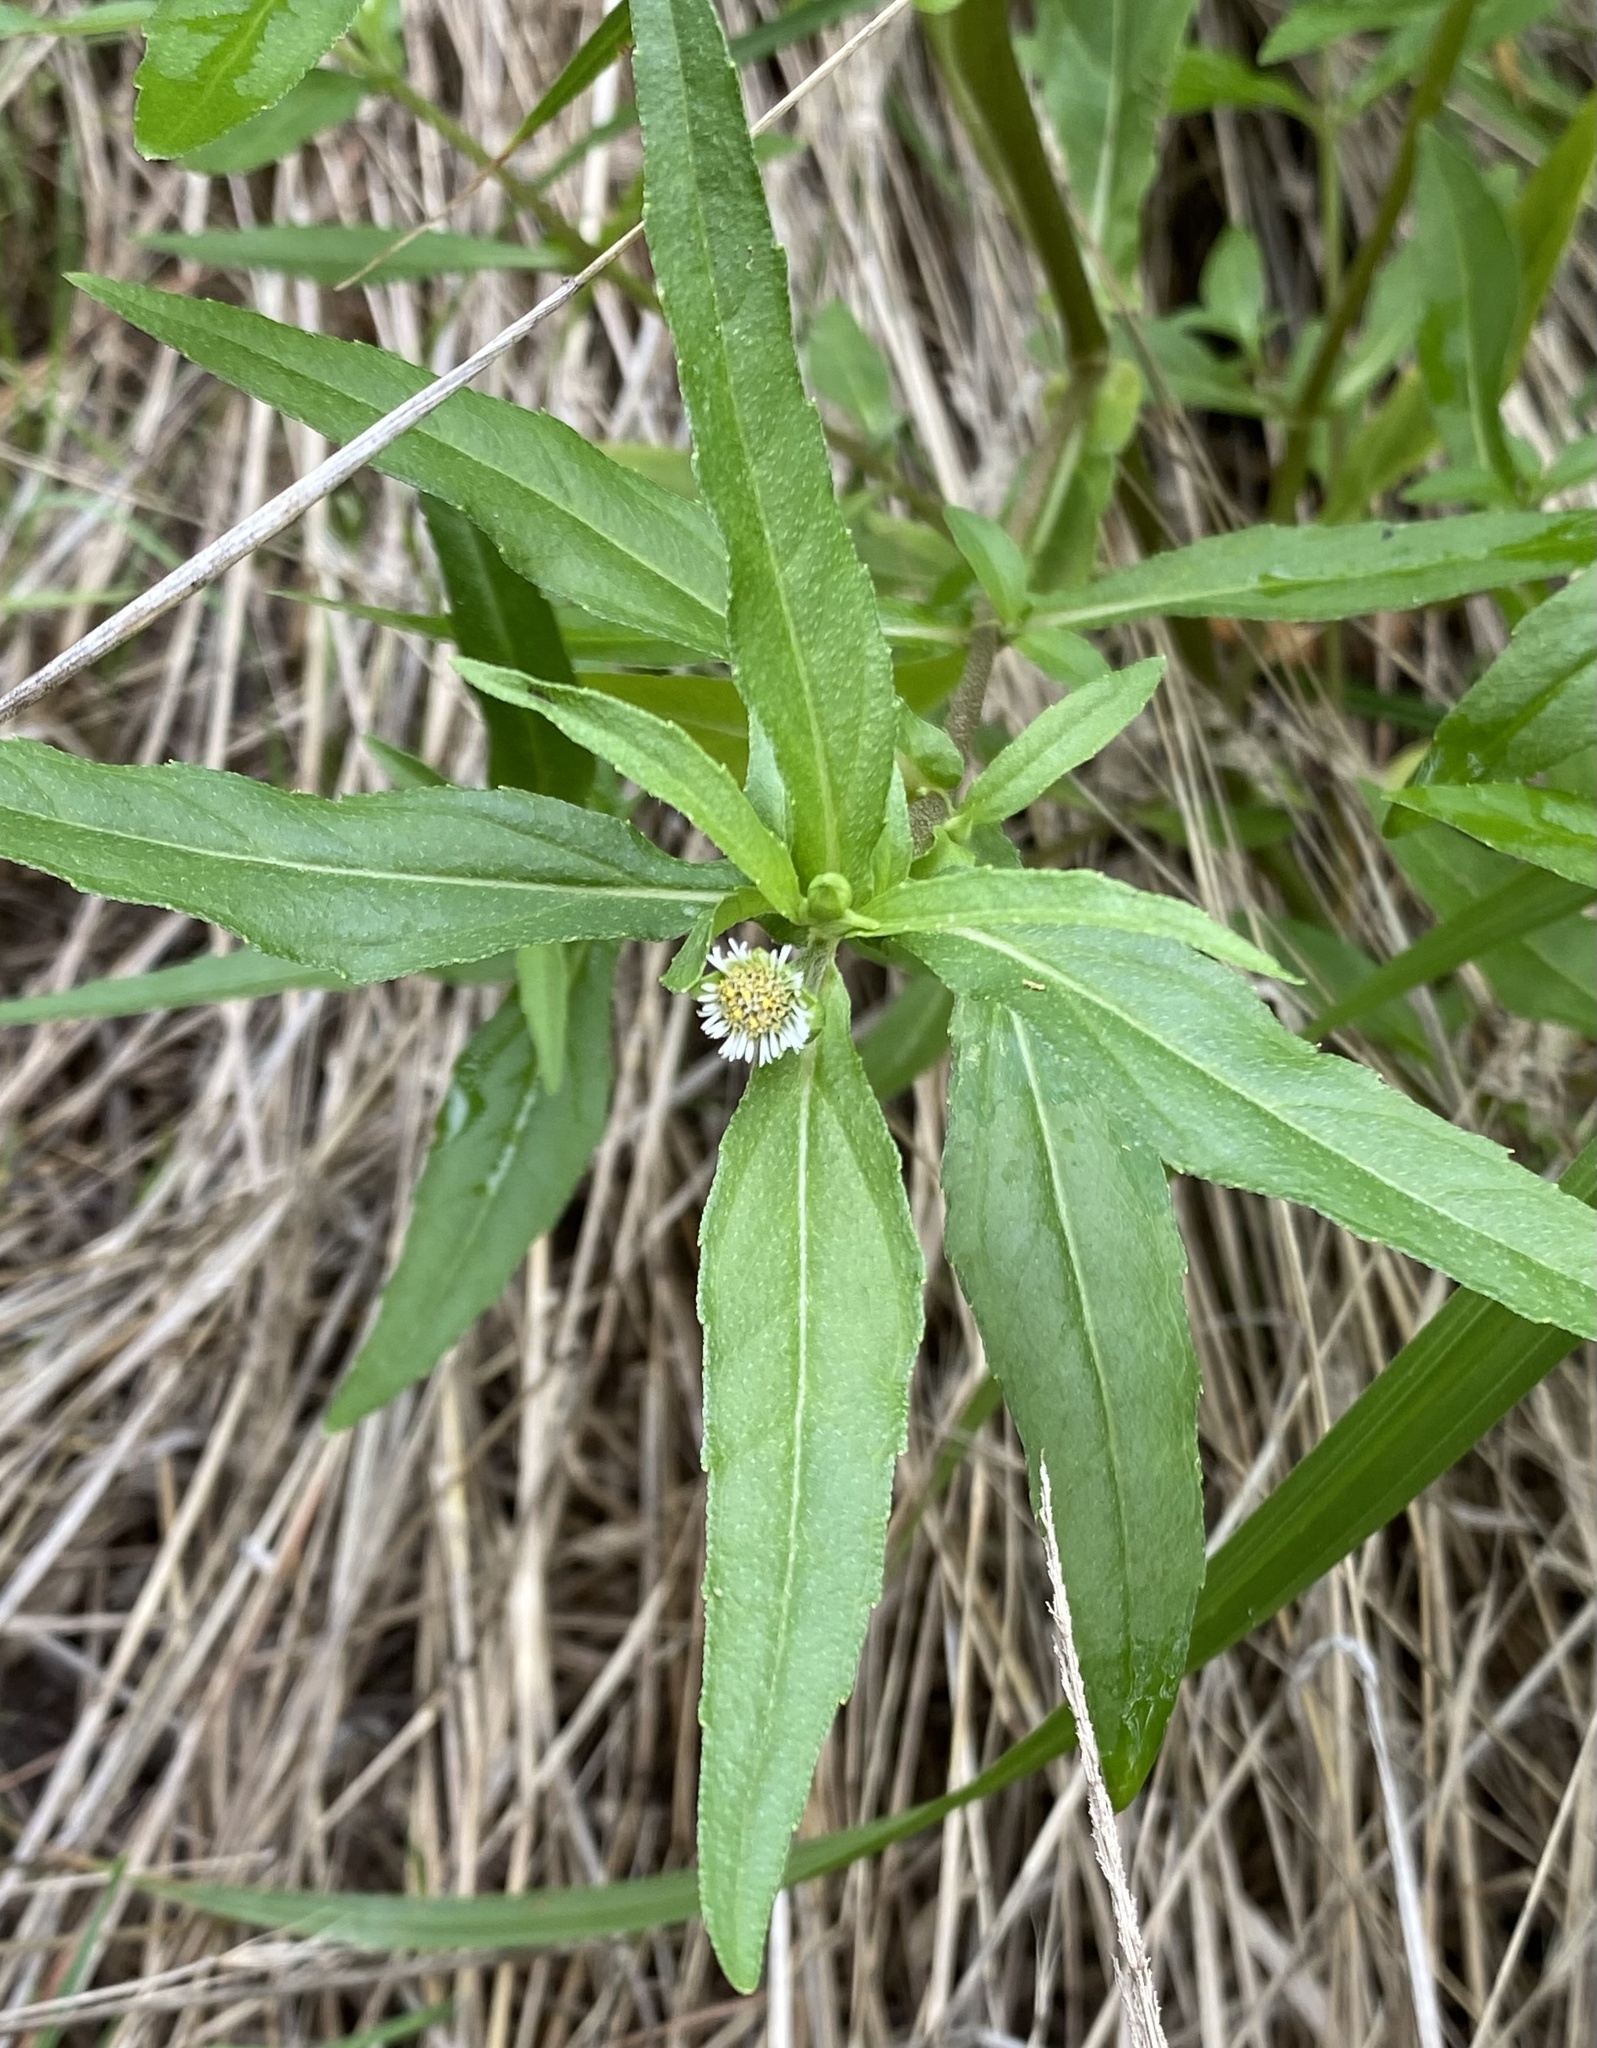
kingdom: Plantae
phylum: Tracheophyta
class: Magnoliopsida
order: Asterales
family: Asteraceae
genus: Eclipta
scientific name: Eclipta prostrata
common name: False daisy
